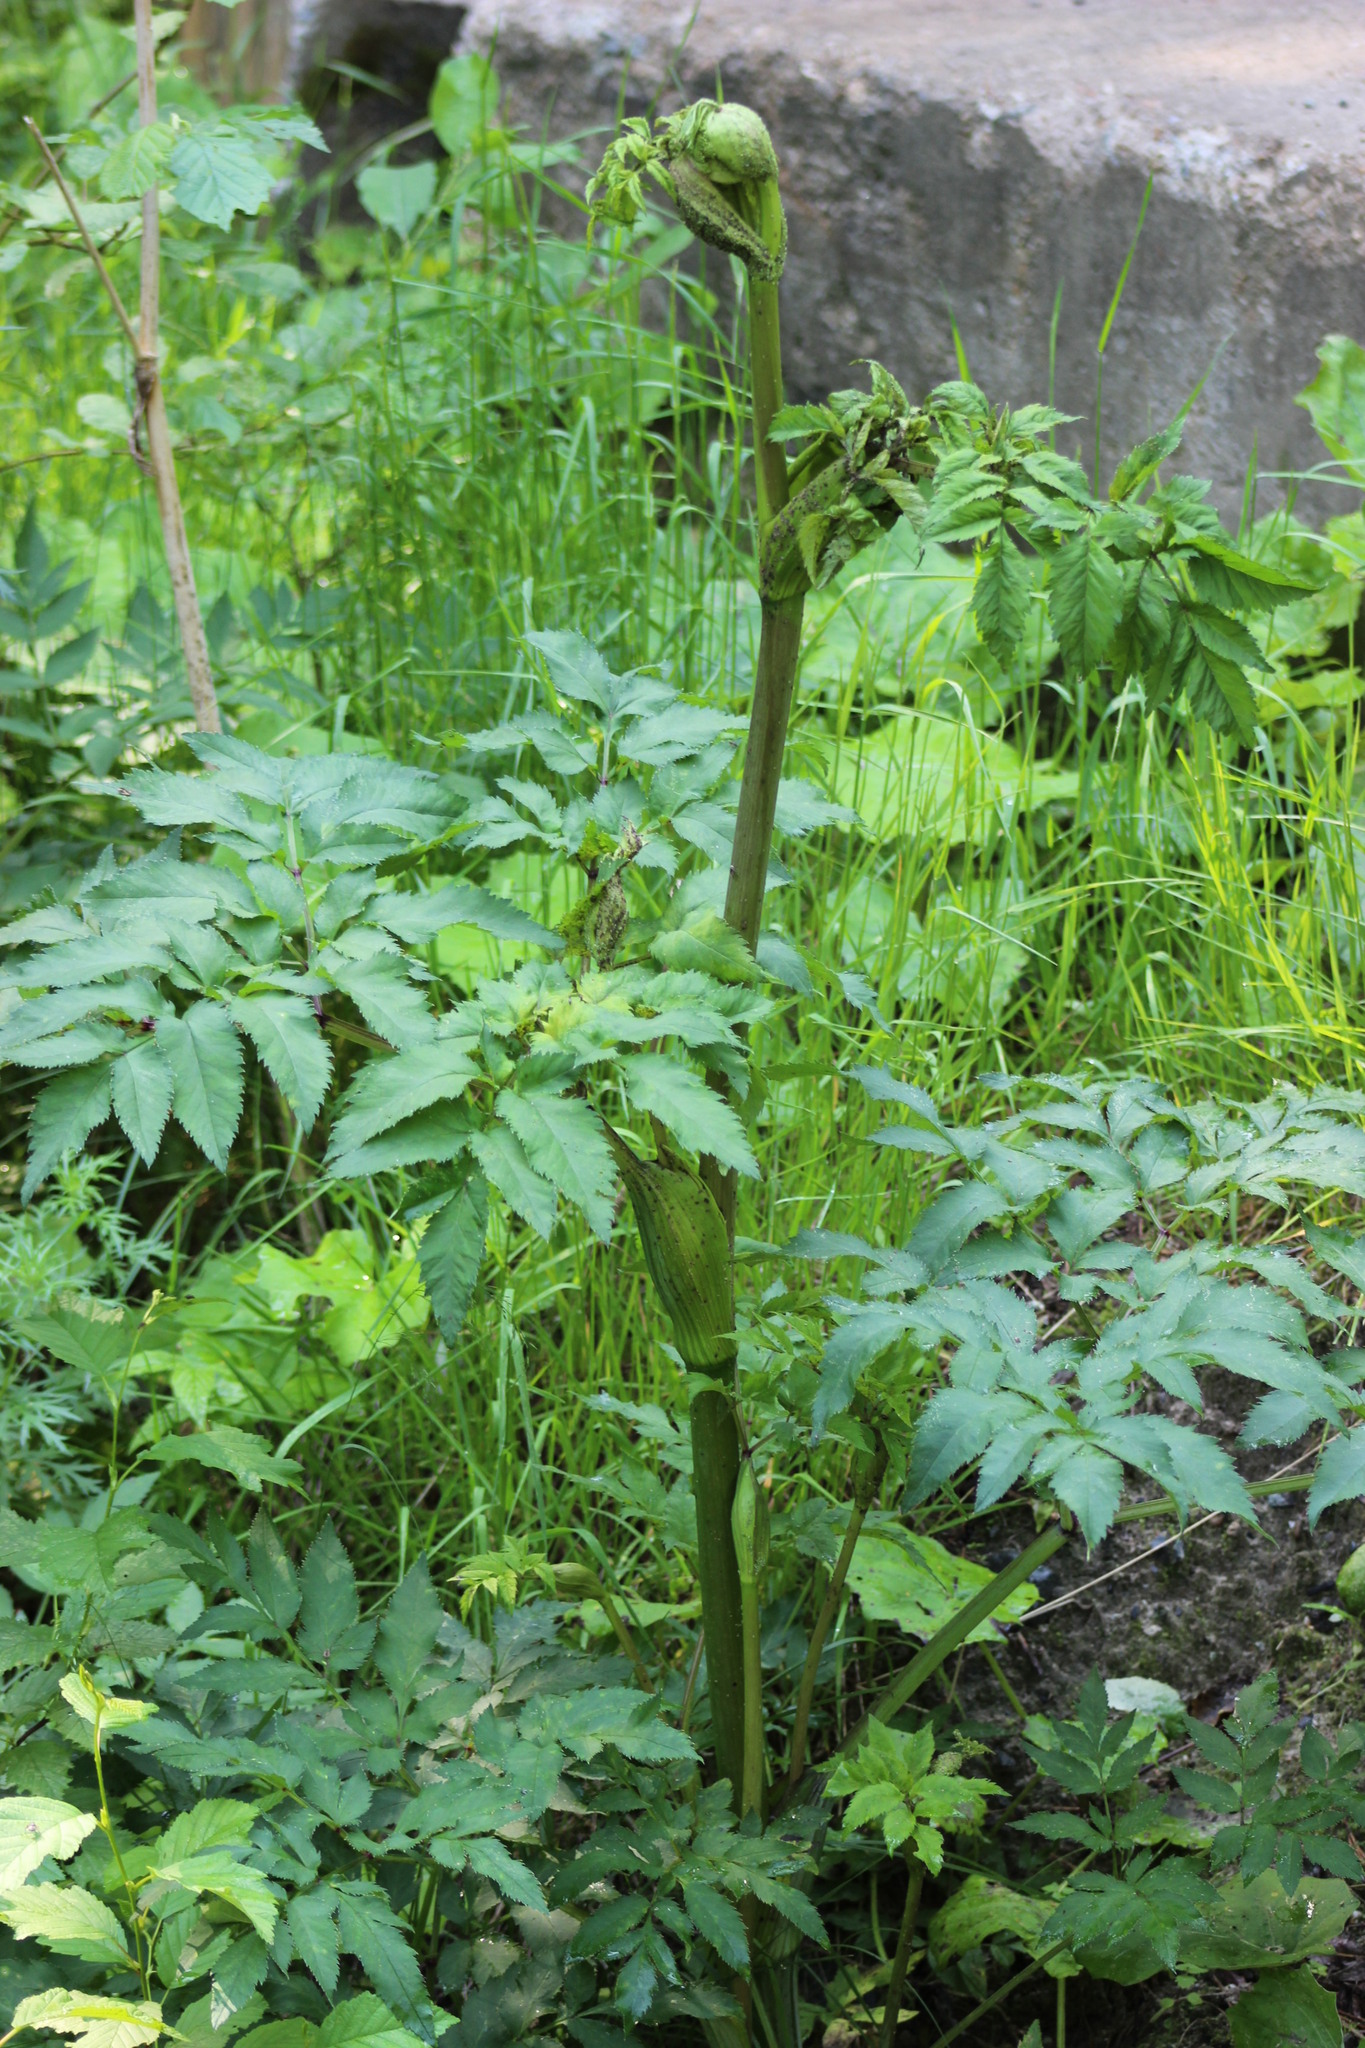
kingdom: Plantae
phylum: Tracheophyta
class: Magnoliopsida
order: Apiales
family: Apiaceae
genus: Angelica
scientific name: Angelica sylvestris
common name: Wild angelica
